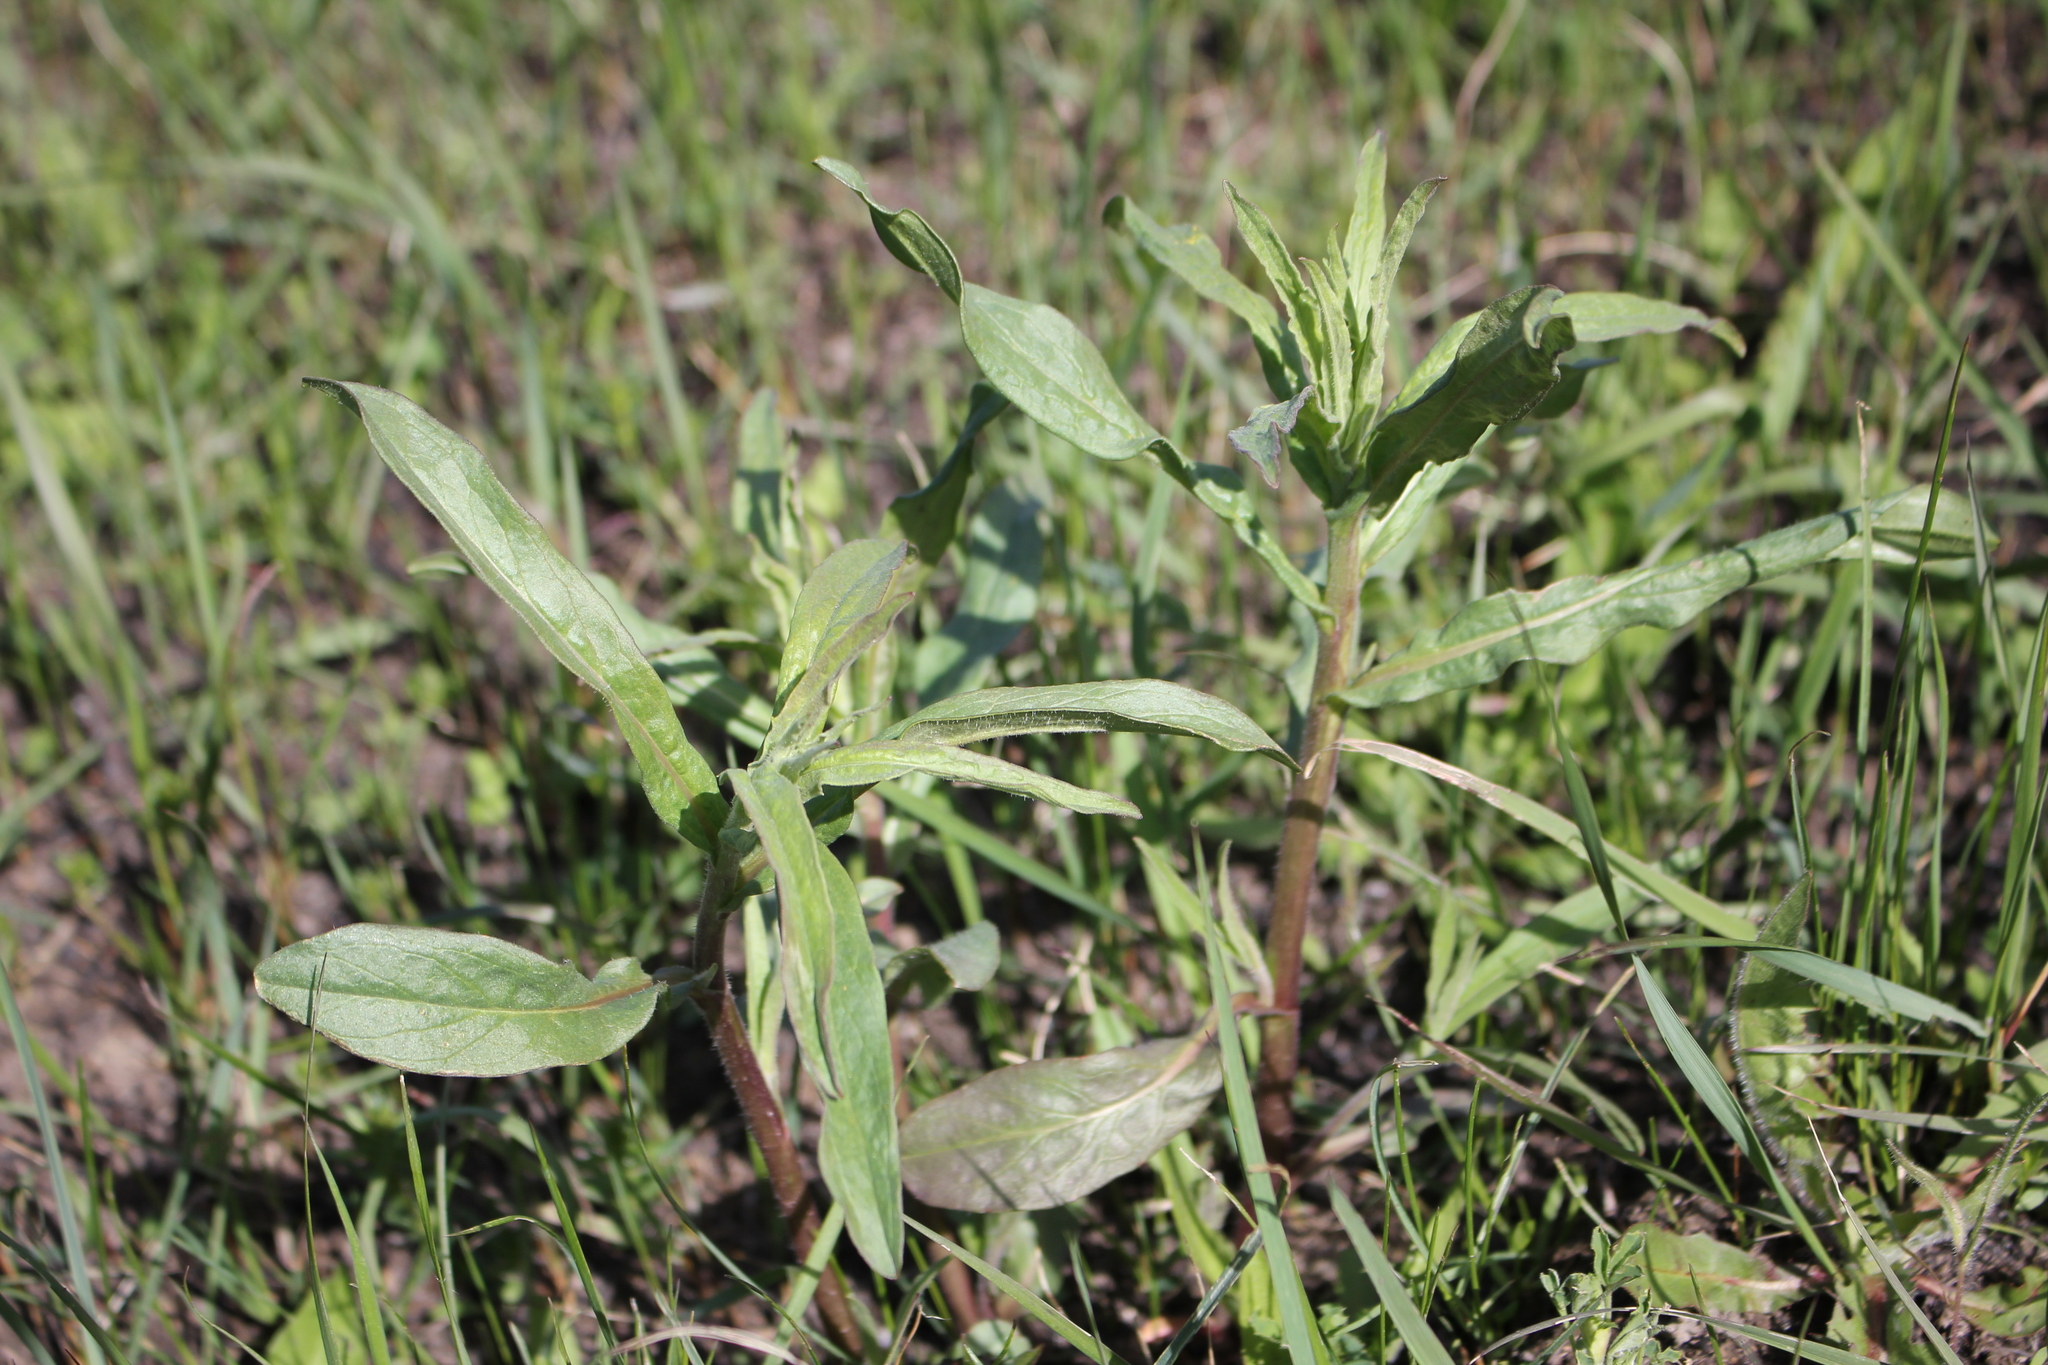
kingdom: Plantae
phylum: Tracheophyta
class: Magnoliopsida
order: Asterales
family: Asteraceae
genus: Hieracium
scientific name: Hieracium umbellatum
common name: Northern hawkweed
